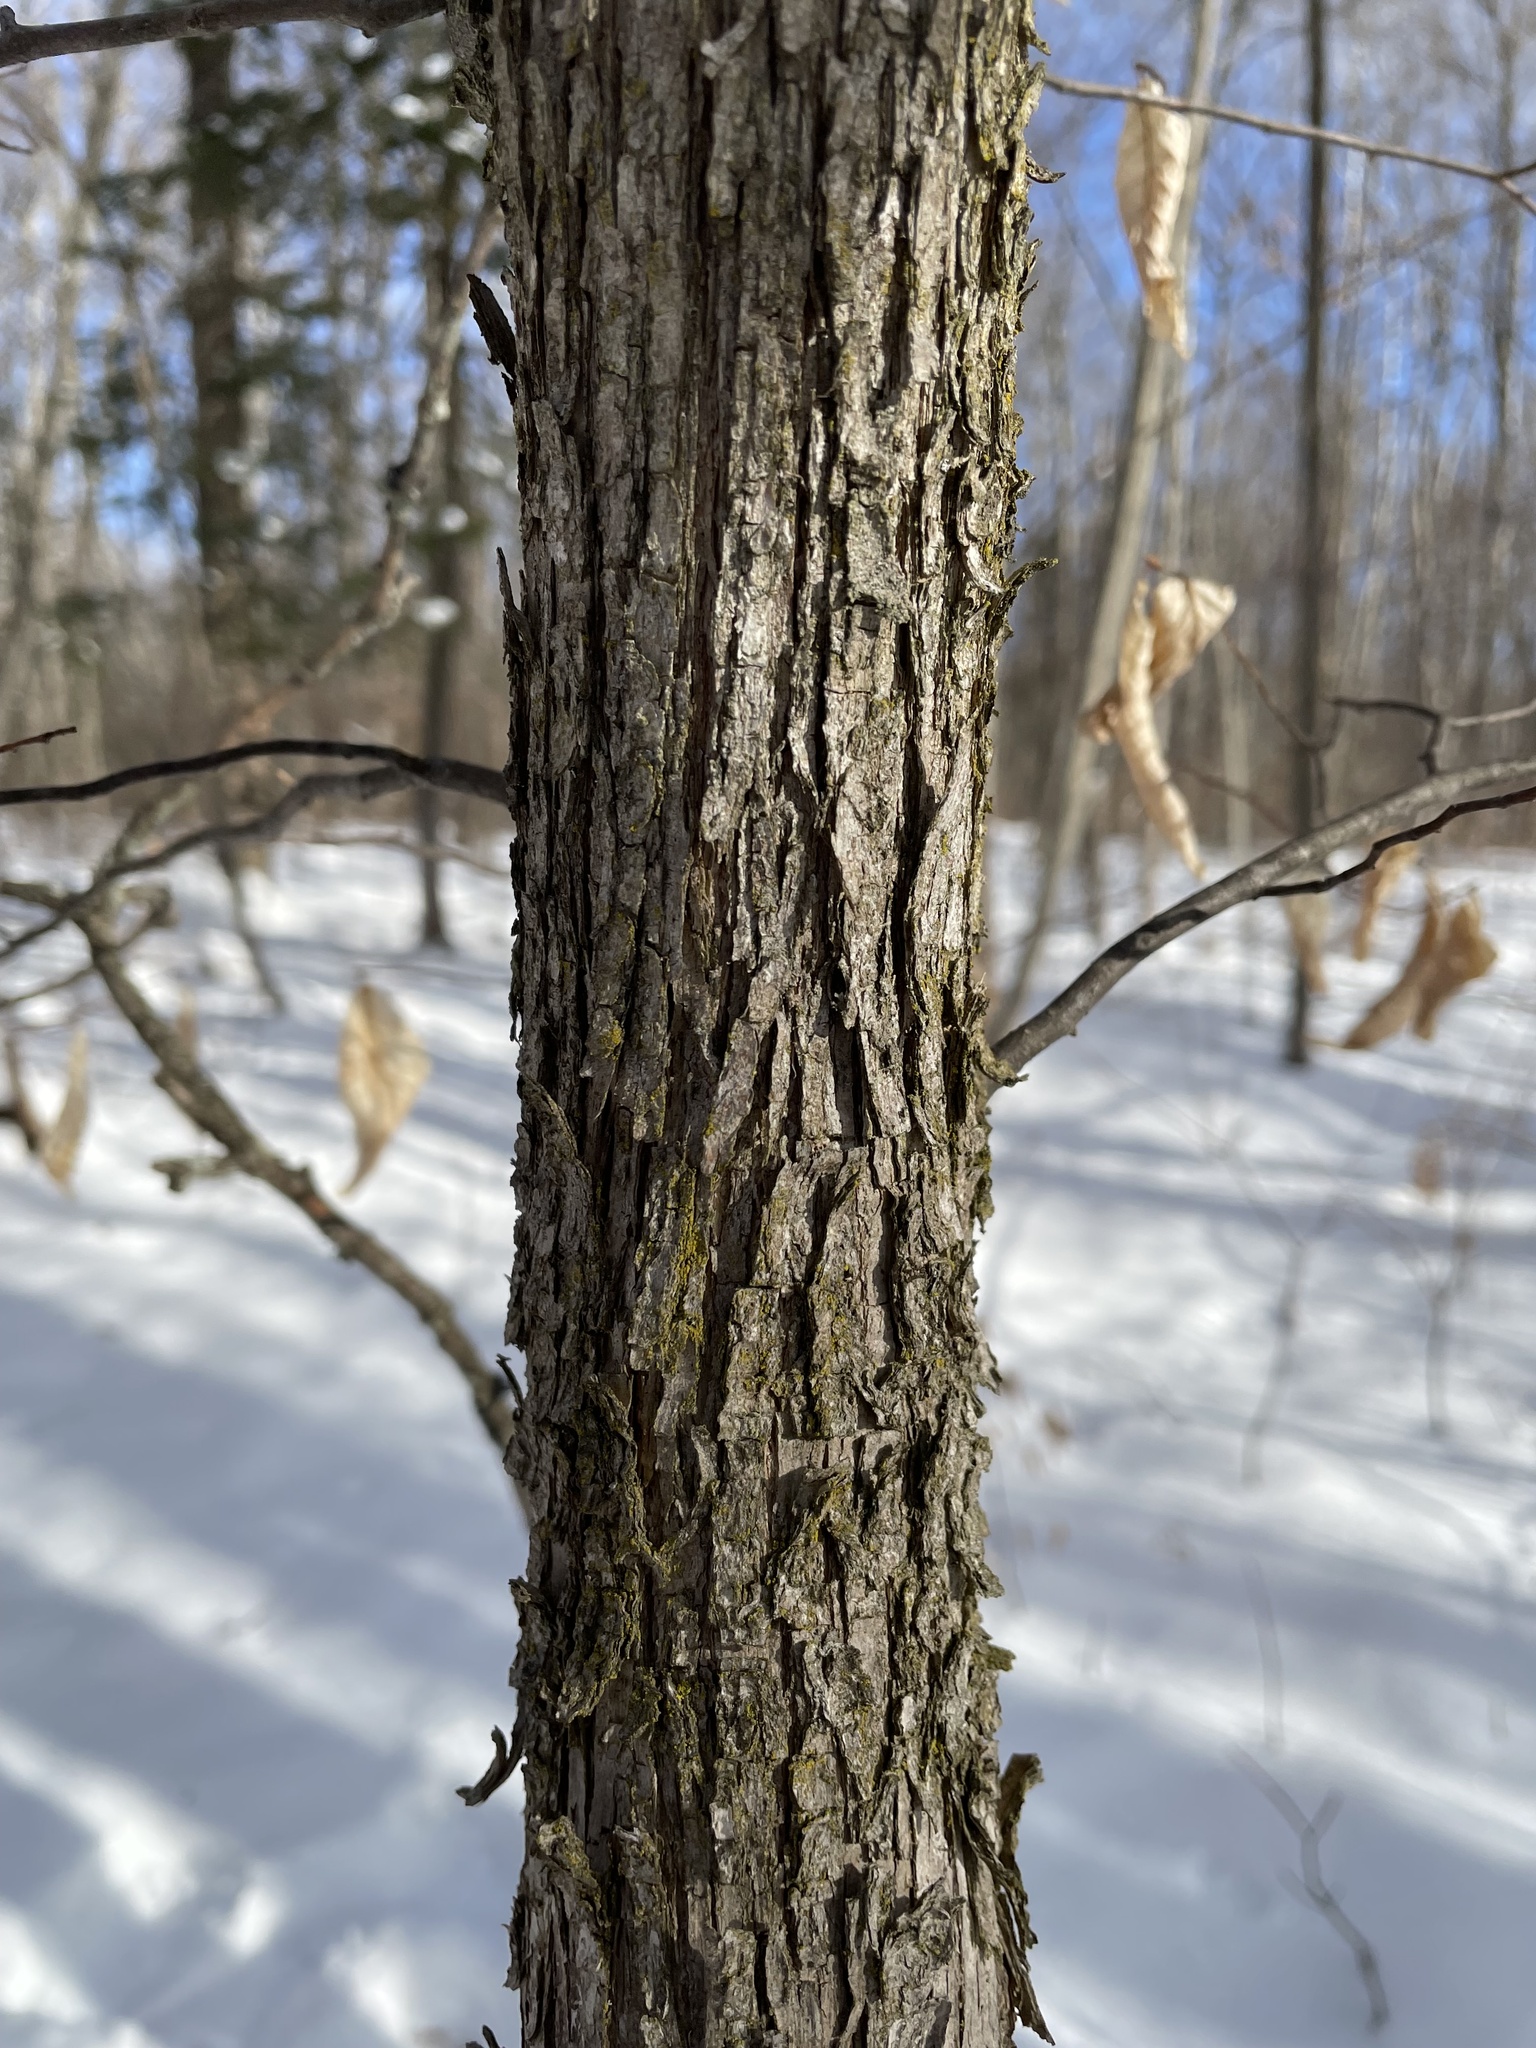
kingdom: Plantae
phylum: Tracheophyta
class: Magnoliopsida
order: Fagales
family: Betulaceae
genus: Ostrya
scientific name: Ostrya virginiana
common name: Ironwood
